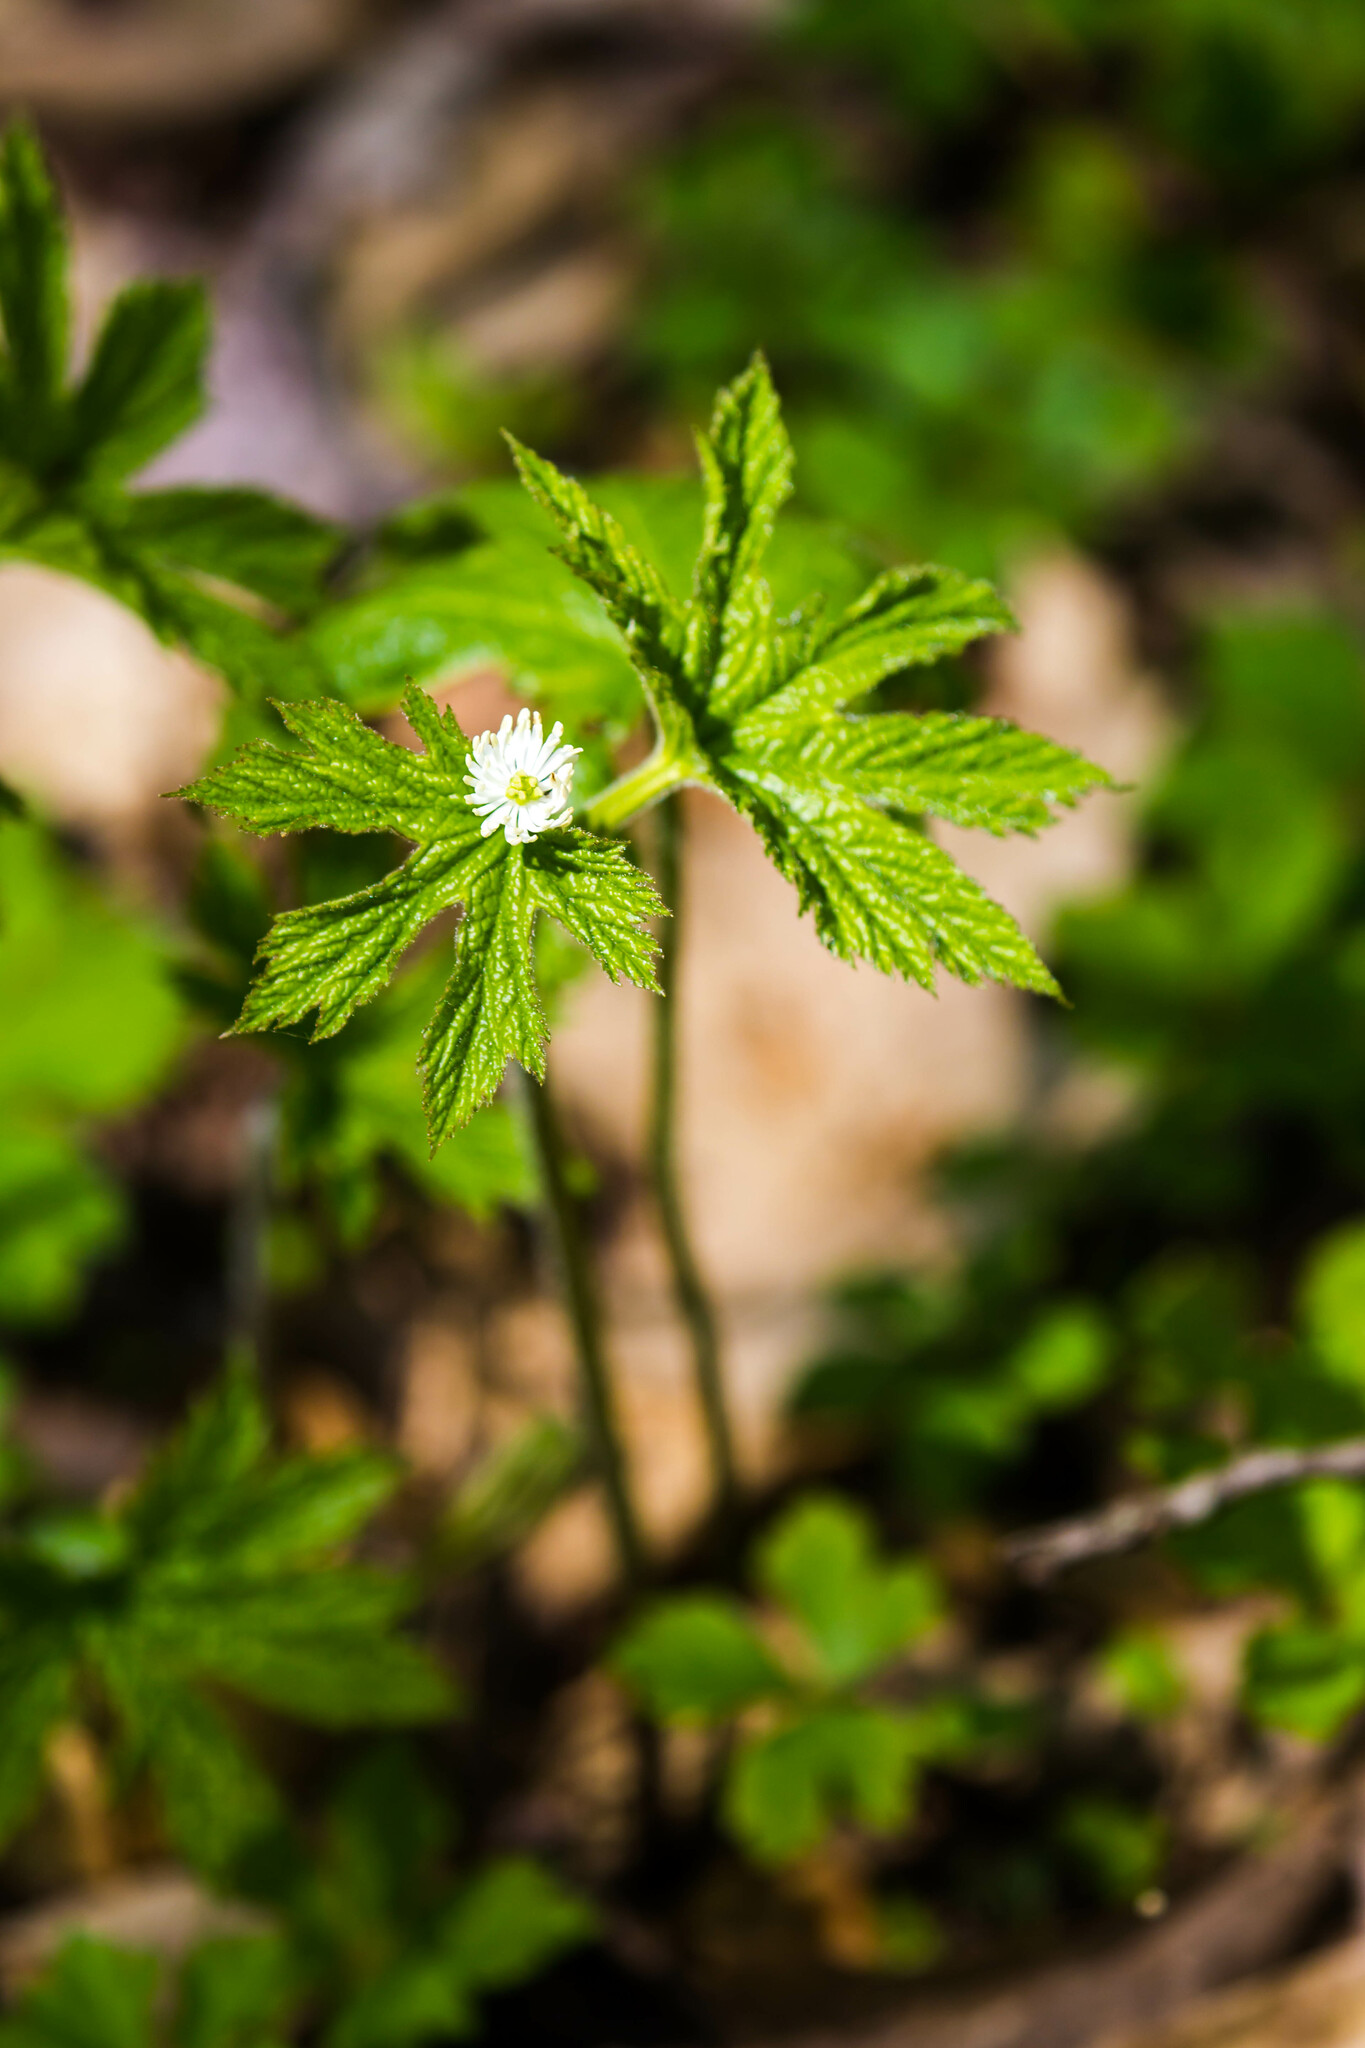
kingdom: Plantae
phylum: Tracheophyta
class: Magnoliopsida
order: Ranunculales
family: Ranunculaceae
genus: Hydrastis
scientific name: Hydrastis canadensis
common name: Goldenseal
